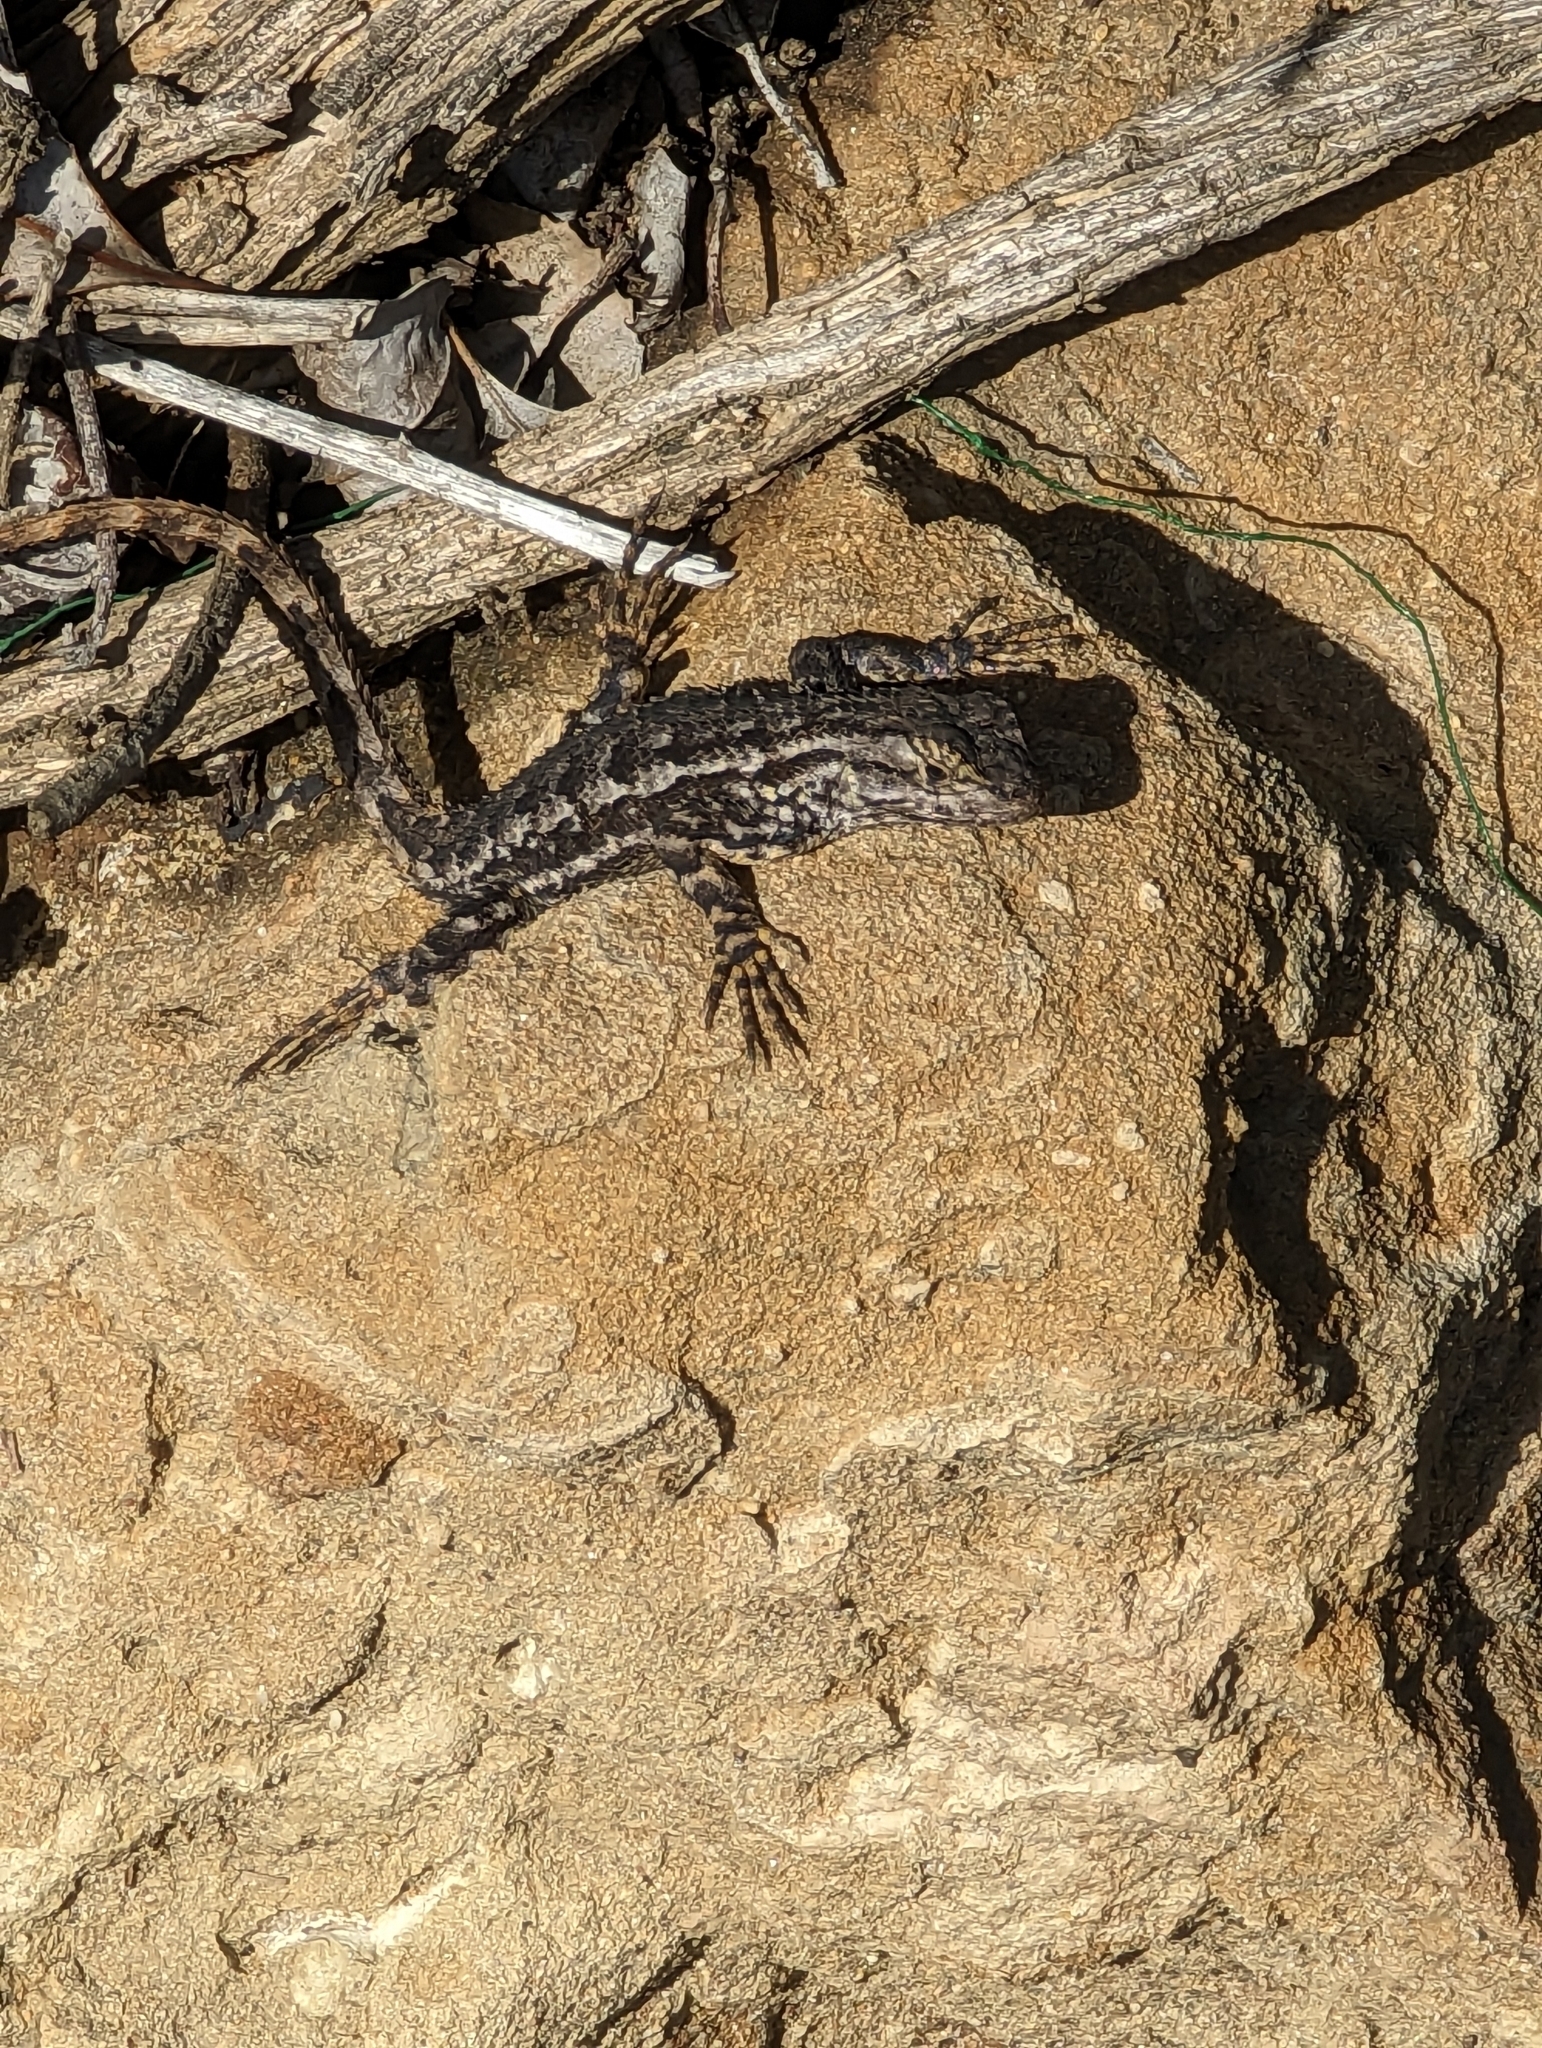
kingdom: Animalia
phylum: Chordata
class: Squamata
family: Phrynosomatidae
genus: Sceloporus
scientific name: Sceloporus occidentalis
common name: Western fence lizard
